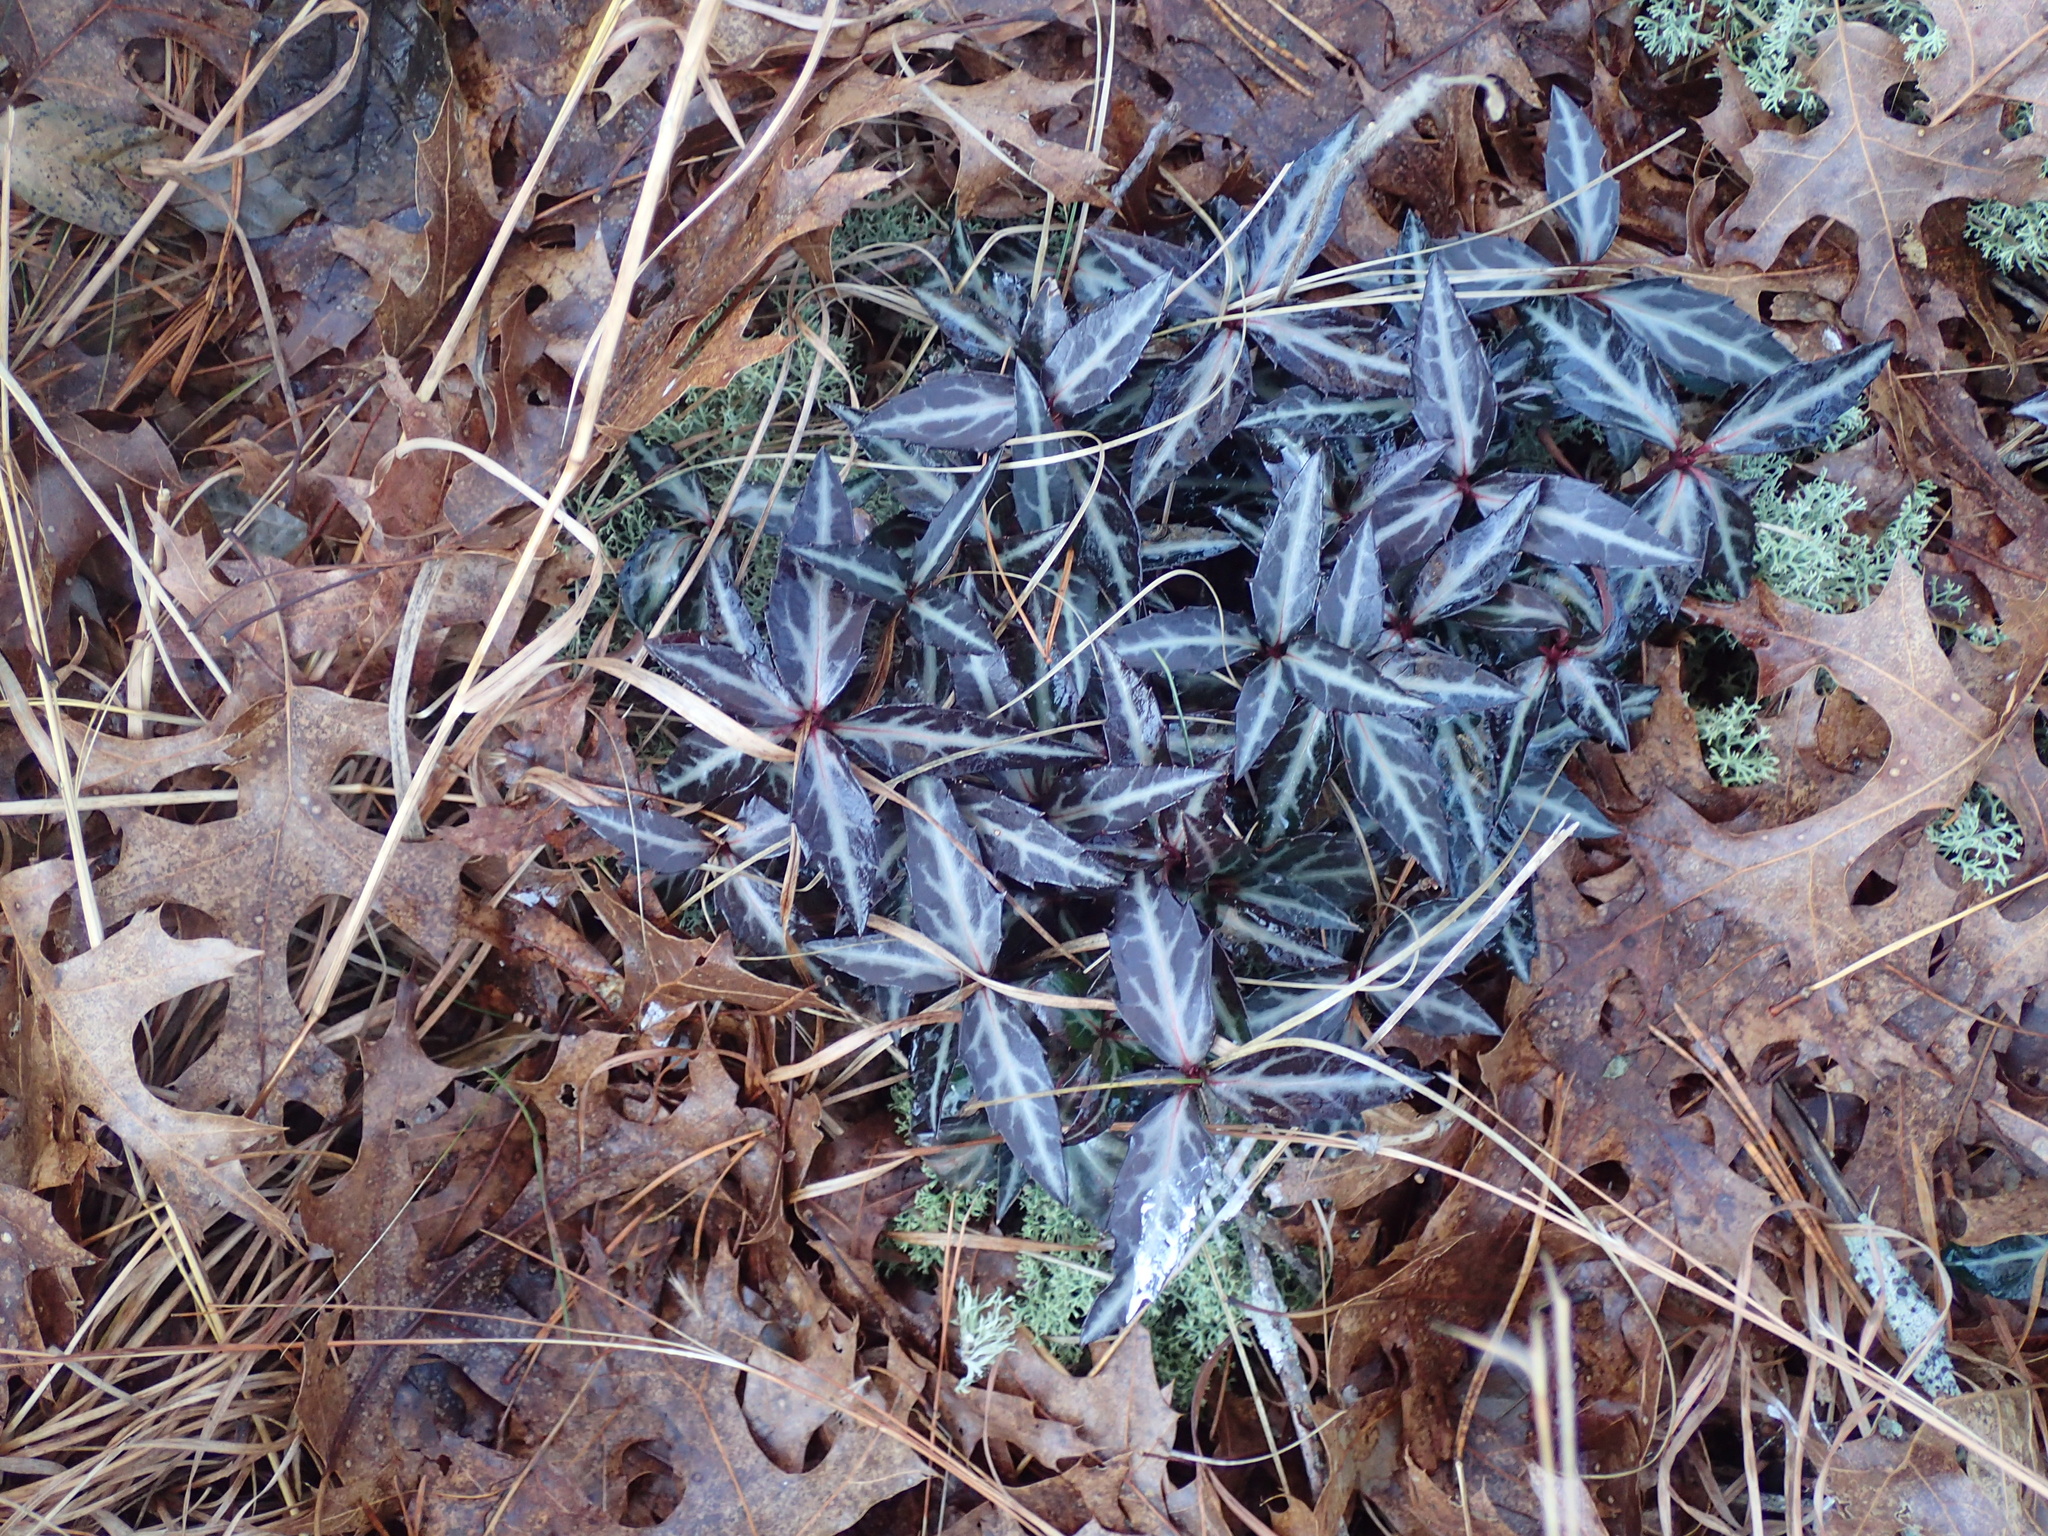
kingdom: Plantae
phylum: Tracheophyta
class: Magnoliopsida
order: Ericales
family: Ericaceae
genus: Chimaphila
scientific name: Chimaphila maculata
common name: Spotted pipsissewa
